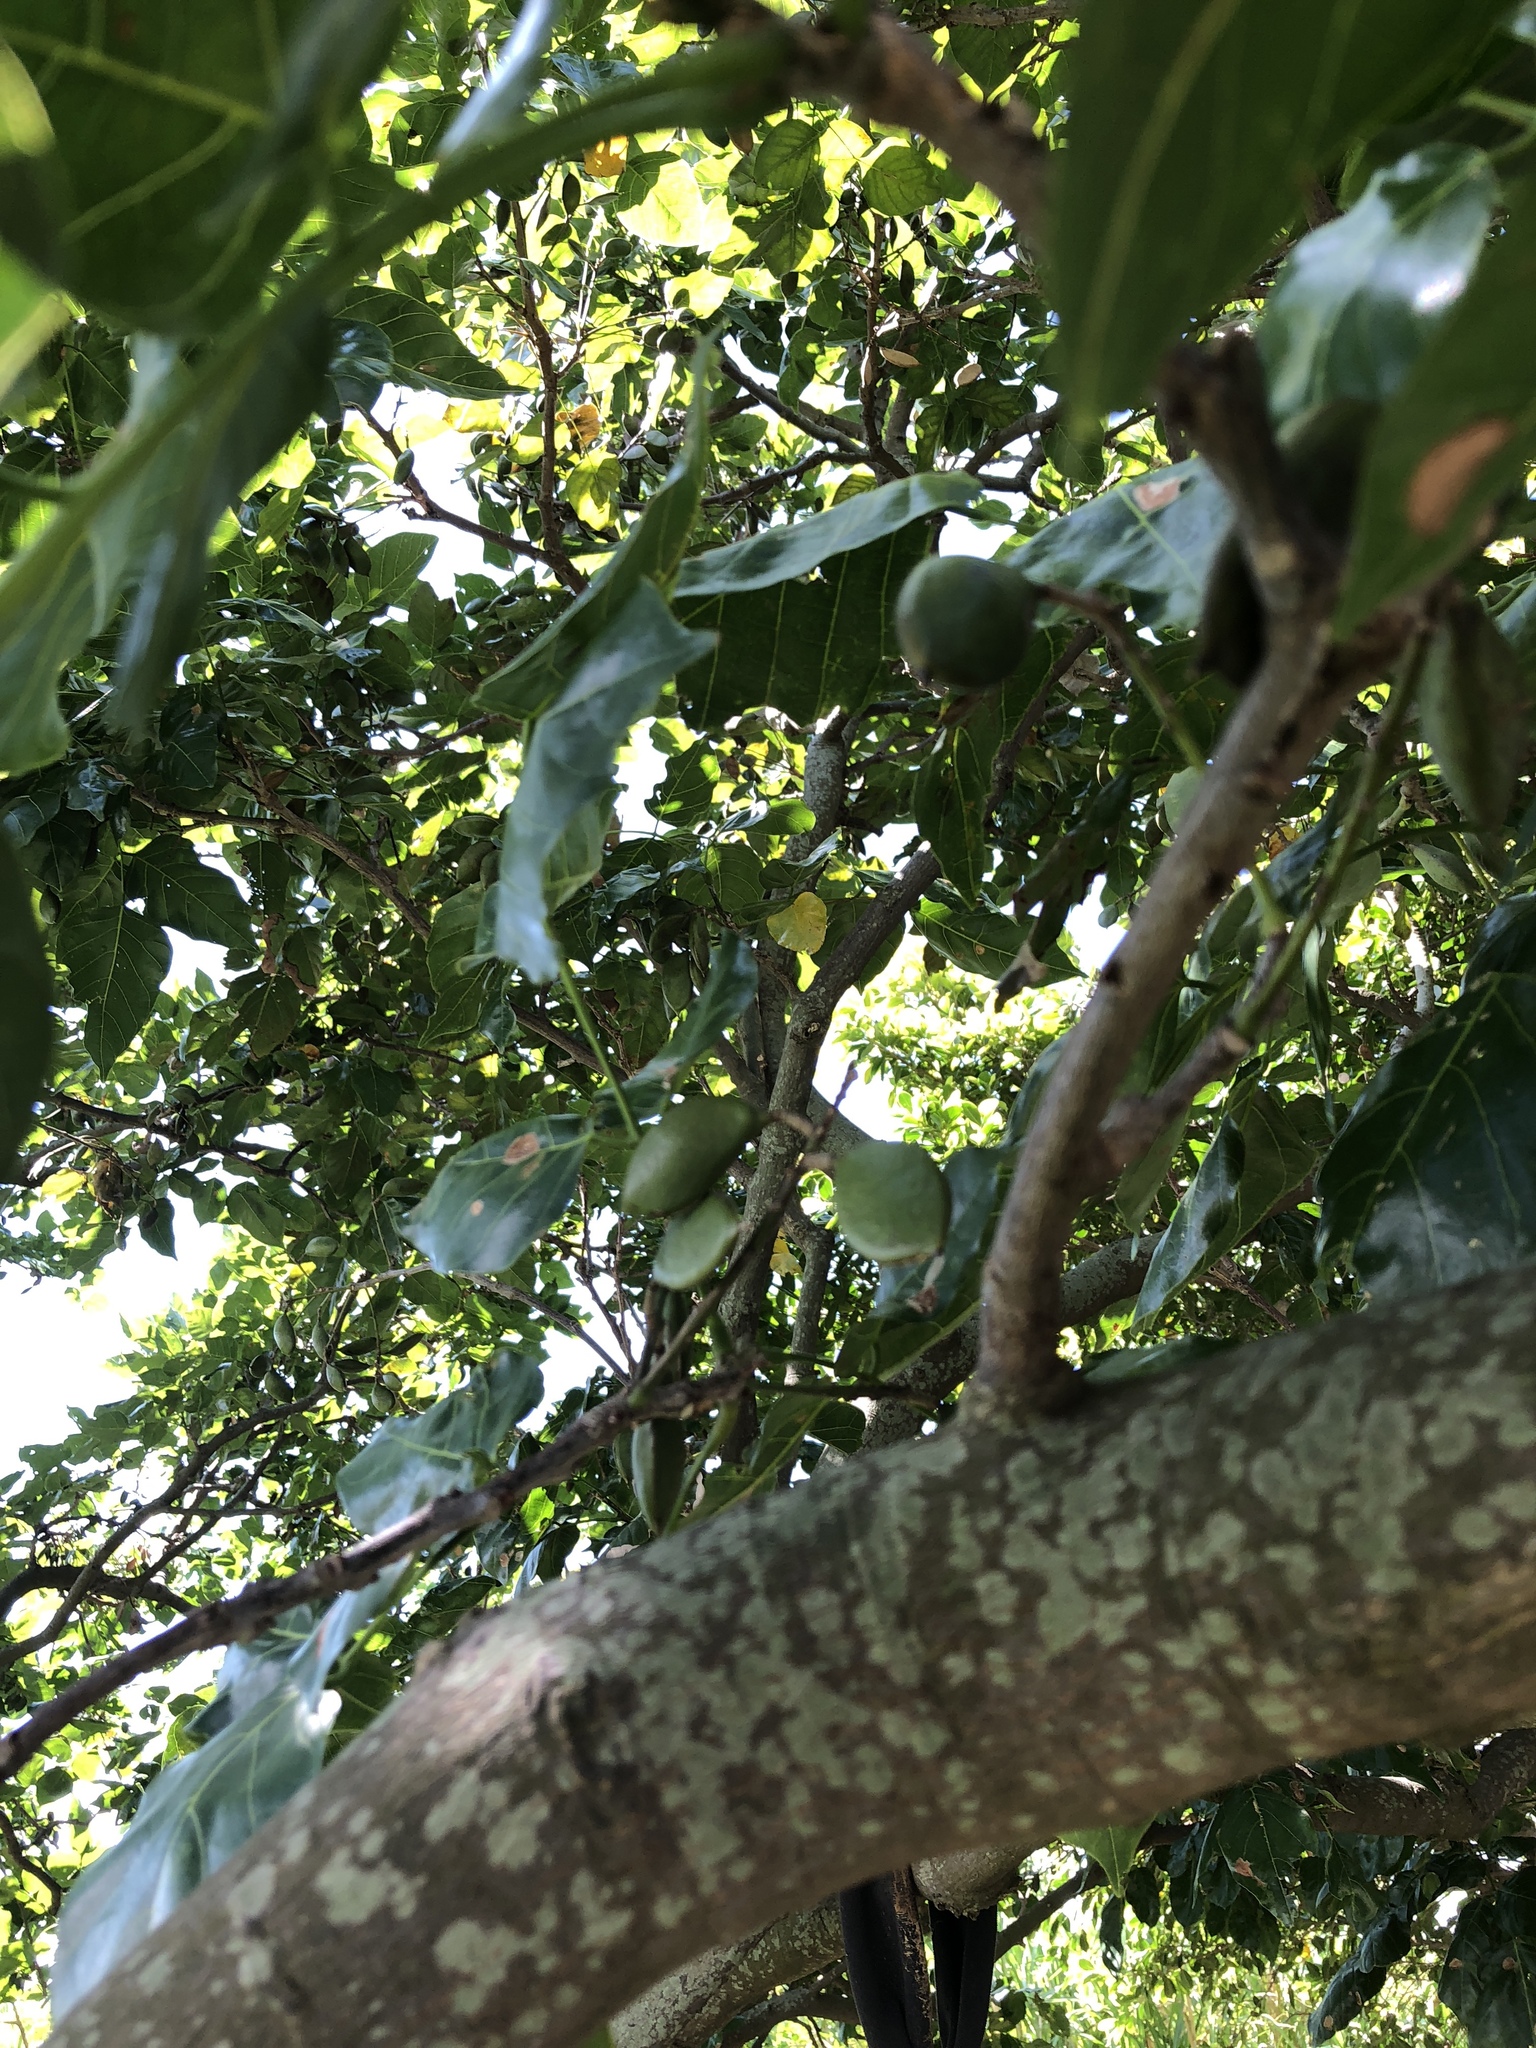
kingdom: Plantae
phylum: Tracheophyta
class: Magnoliopsida
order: Fabales
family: Fabaceae
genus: Pongamia
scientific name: Pongamia pinnata
